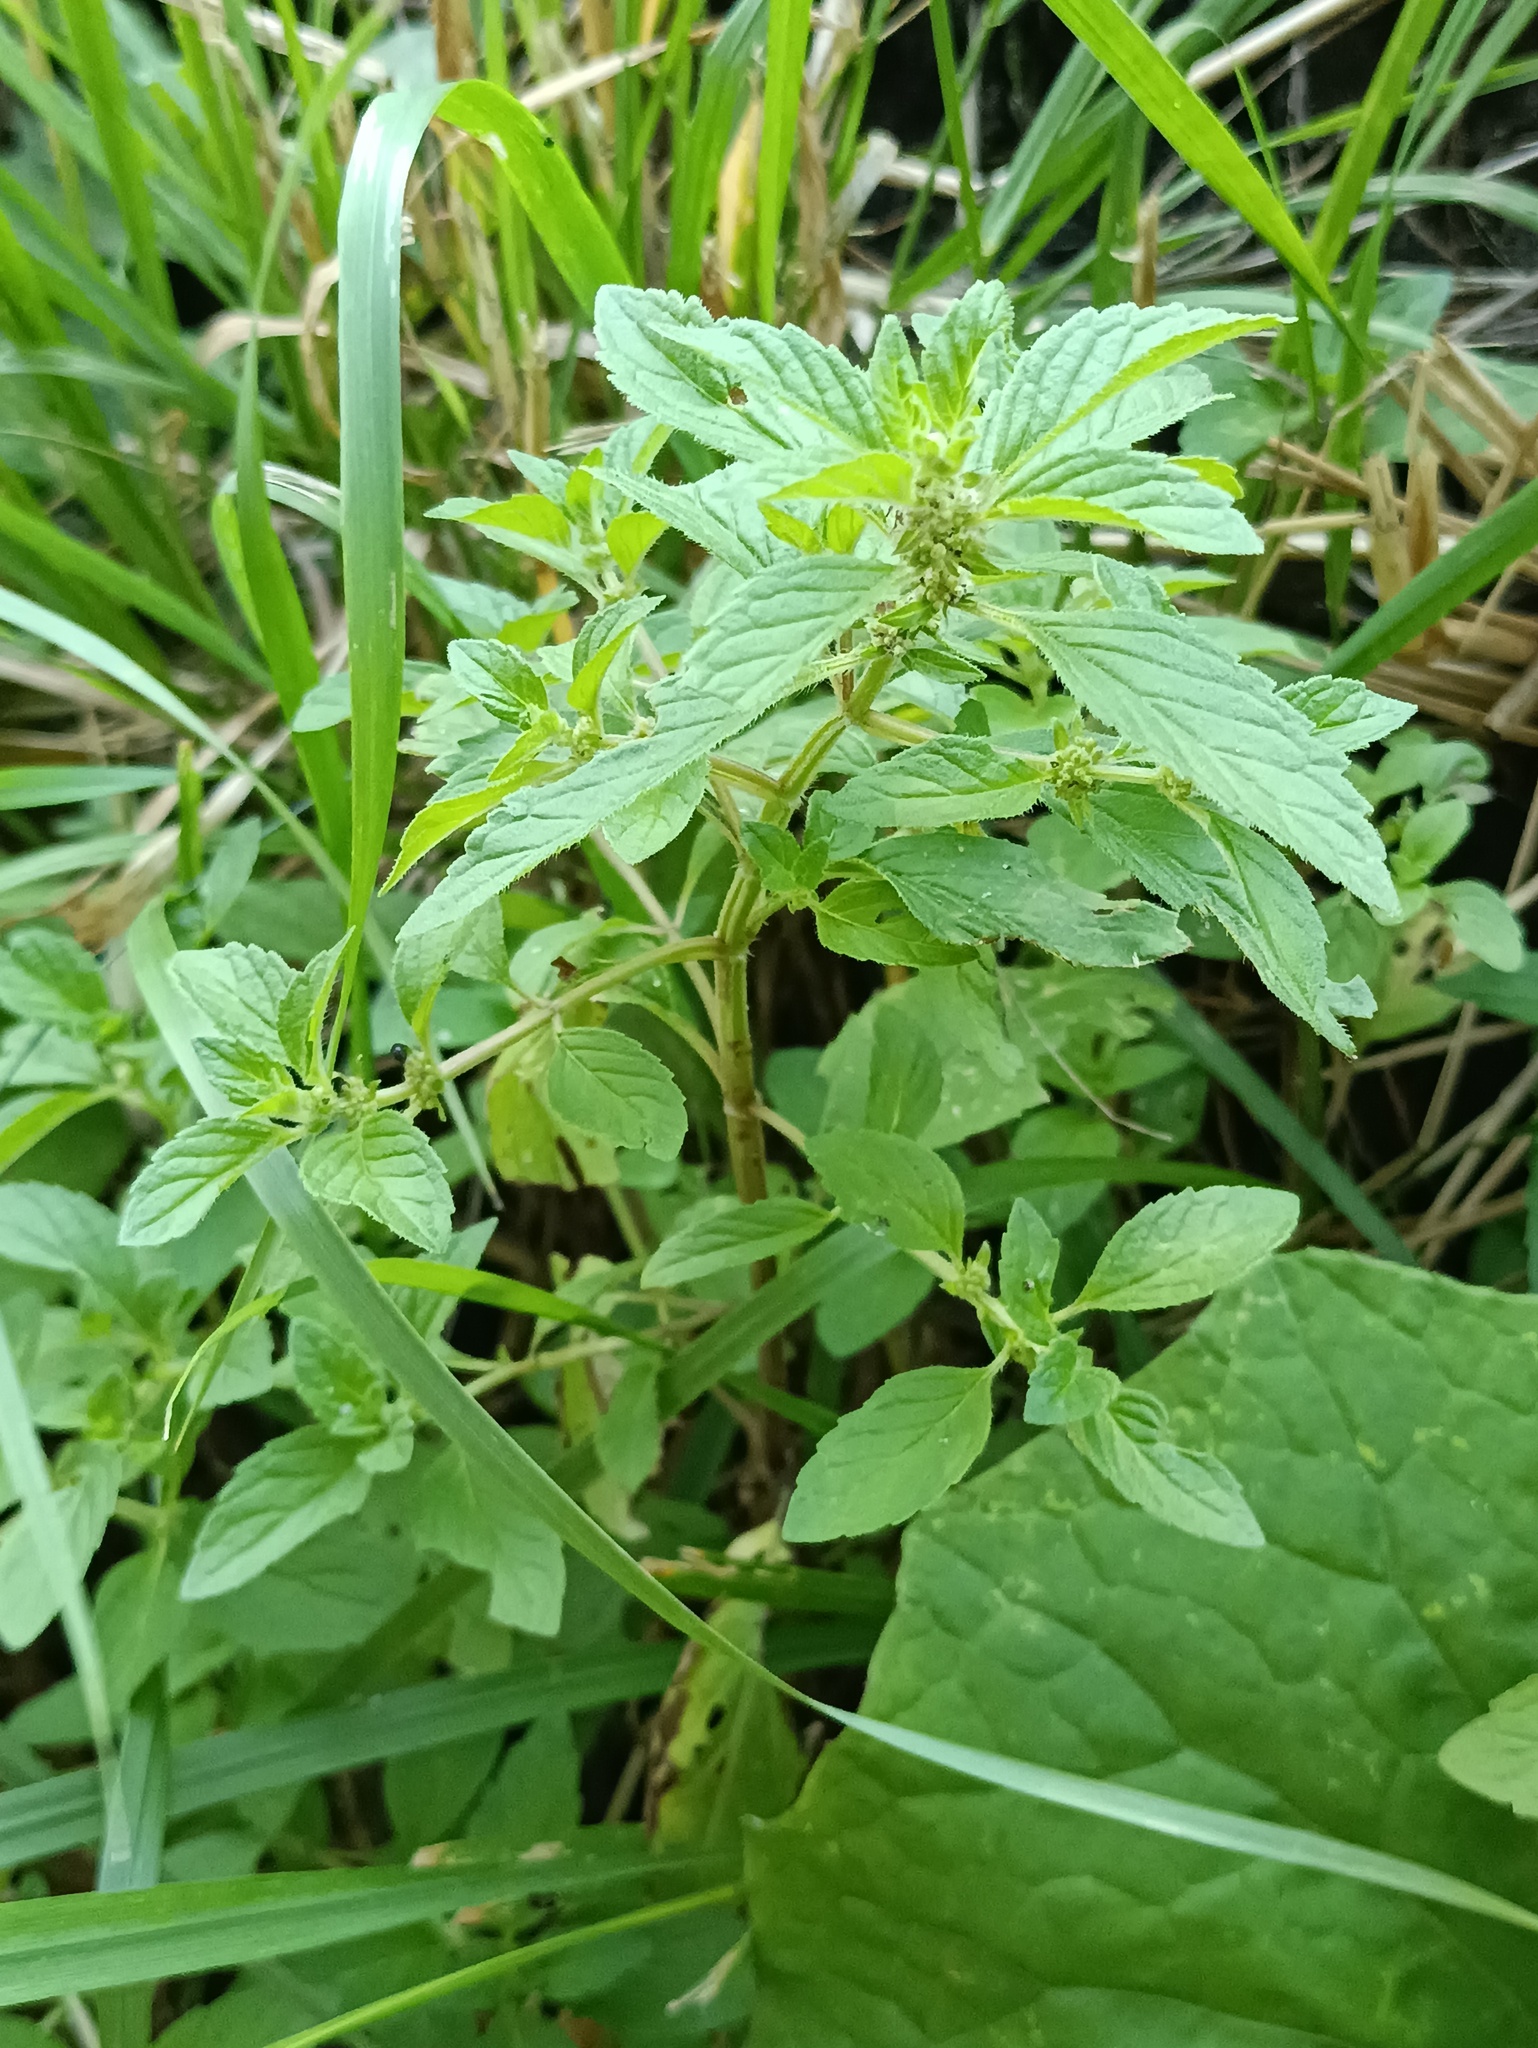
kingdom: Plantae
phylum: Tracheophyta
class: Magnoliopsida
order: Lamiales
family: Lamiaceae
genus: Mentha
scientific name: Mentha arvensis
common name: Corn mint
